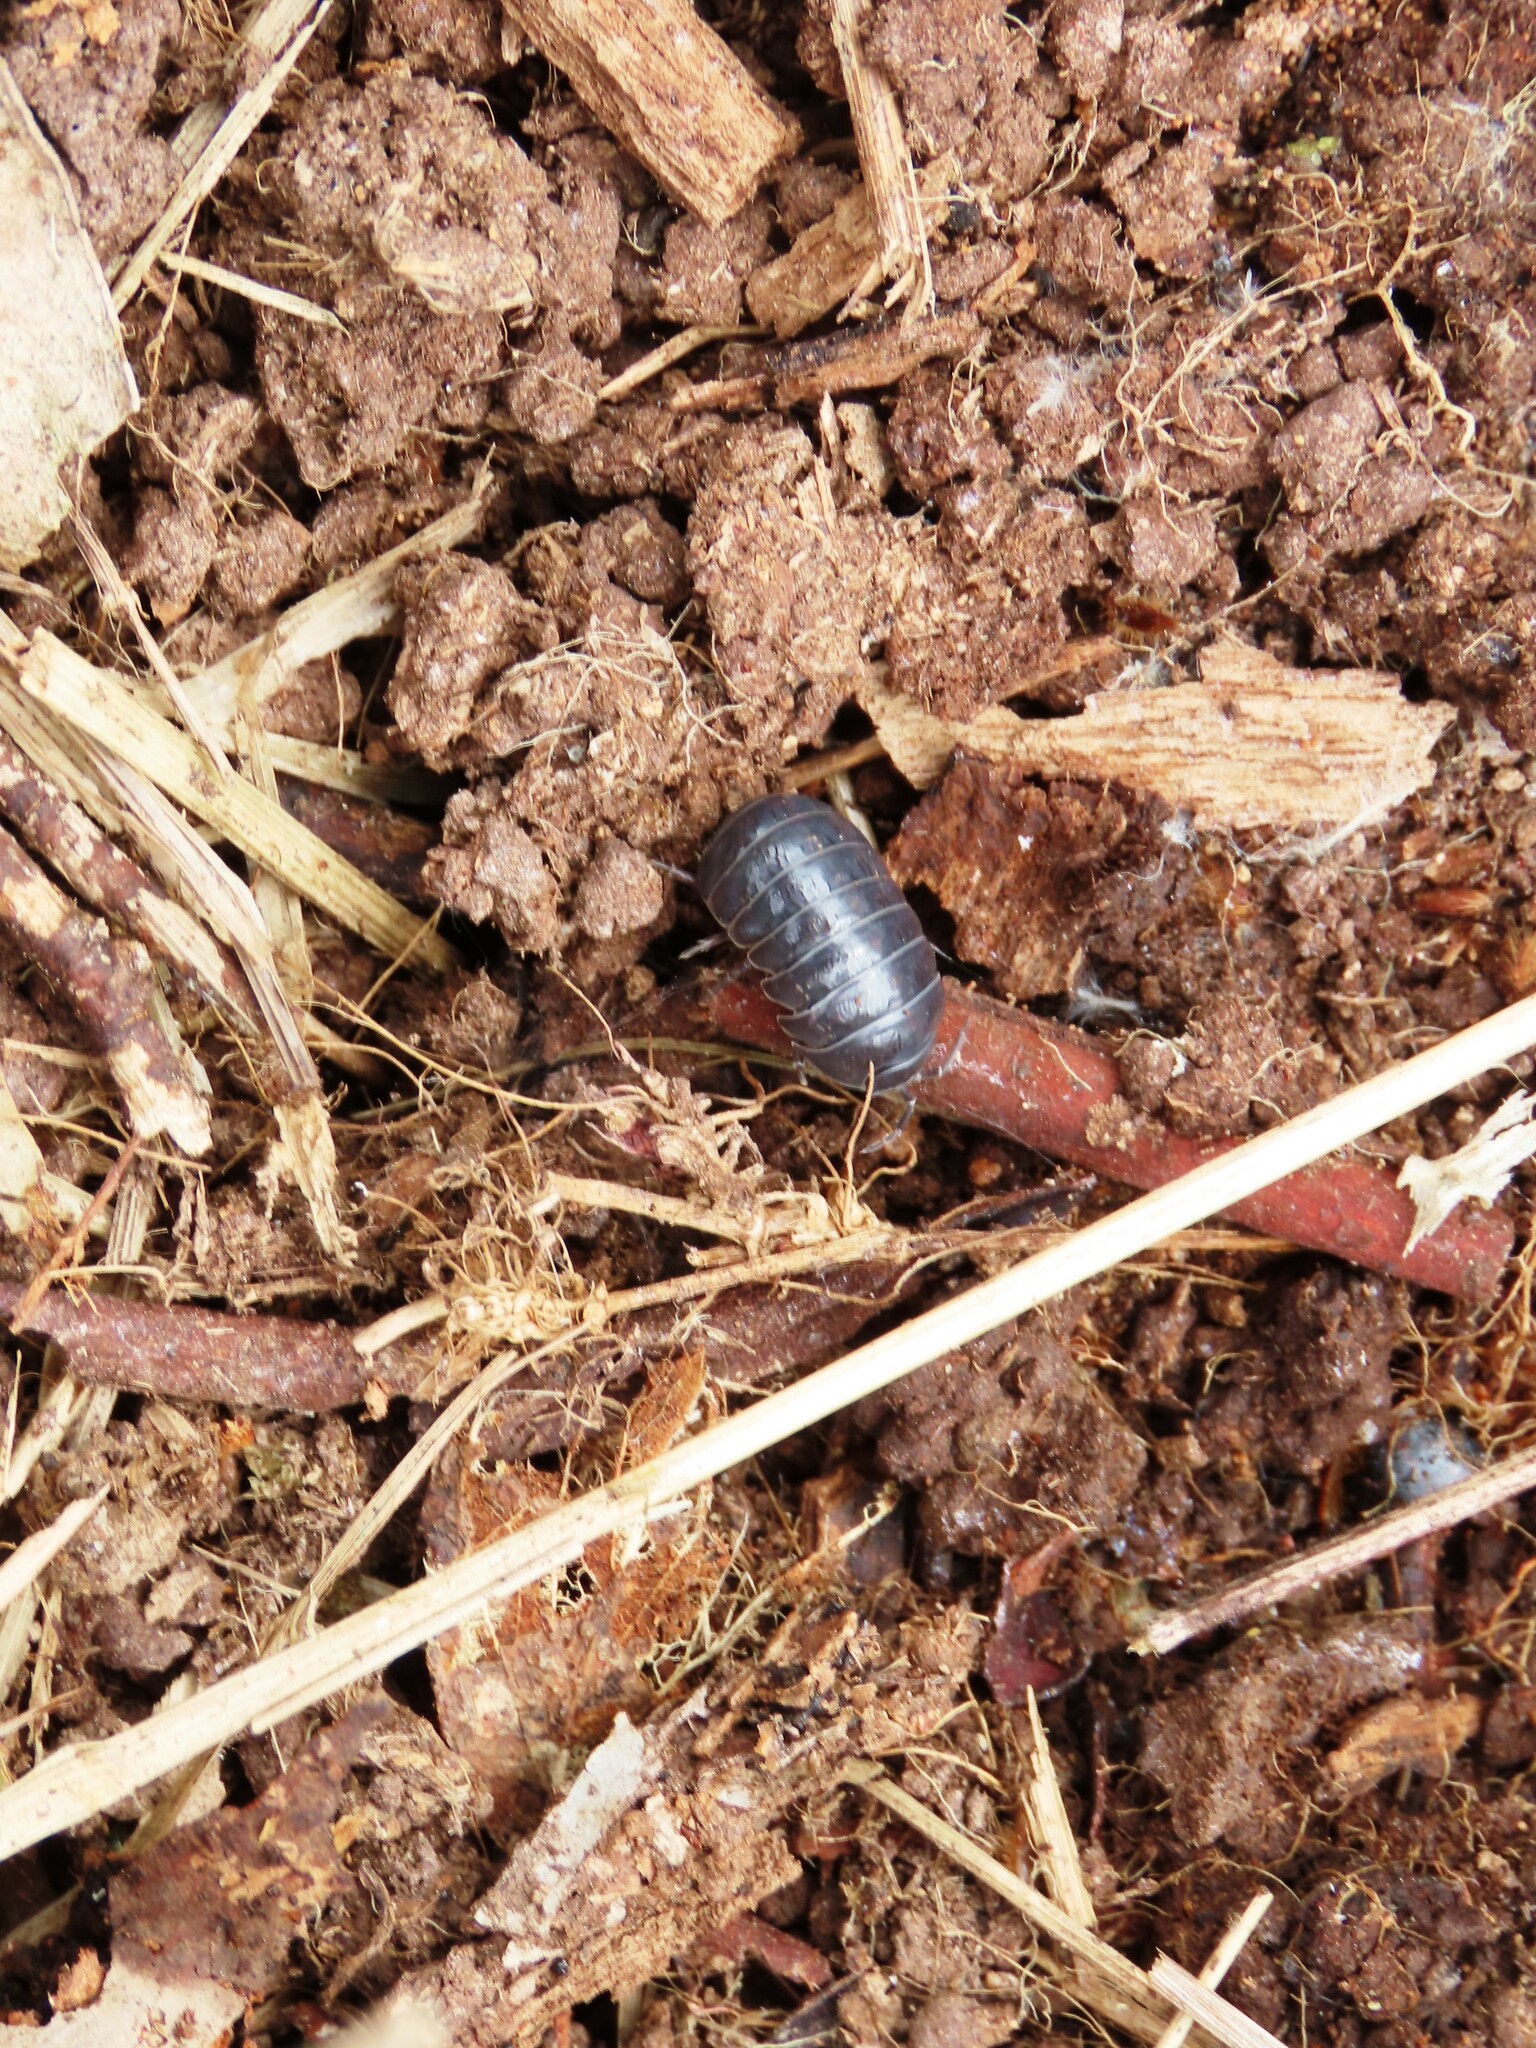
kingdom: Animalia
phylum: Arthropoda
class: Malacostraca
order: Isopoda
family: Armadillidiidae
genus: Armadillidium
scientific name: Armadillidium vulgare
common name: Common pill woodlouse
